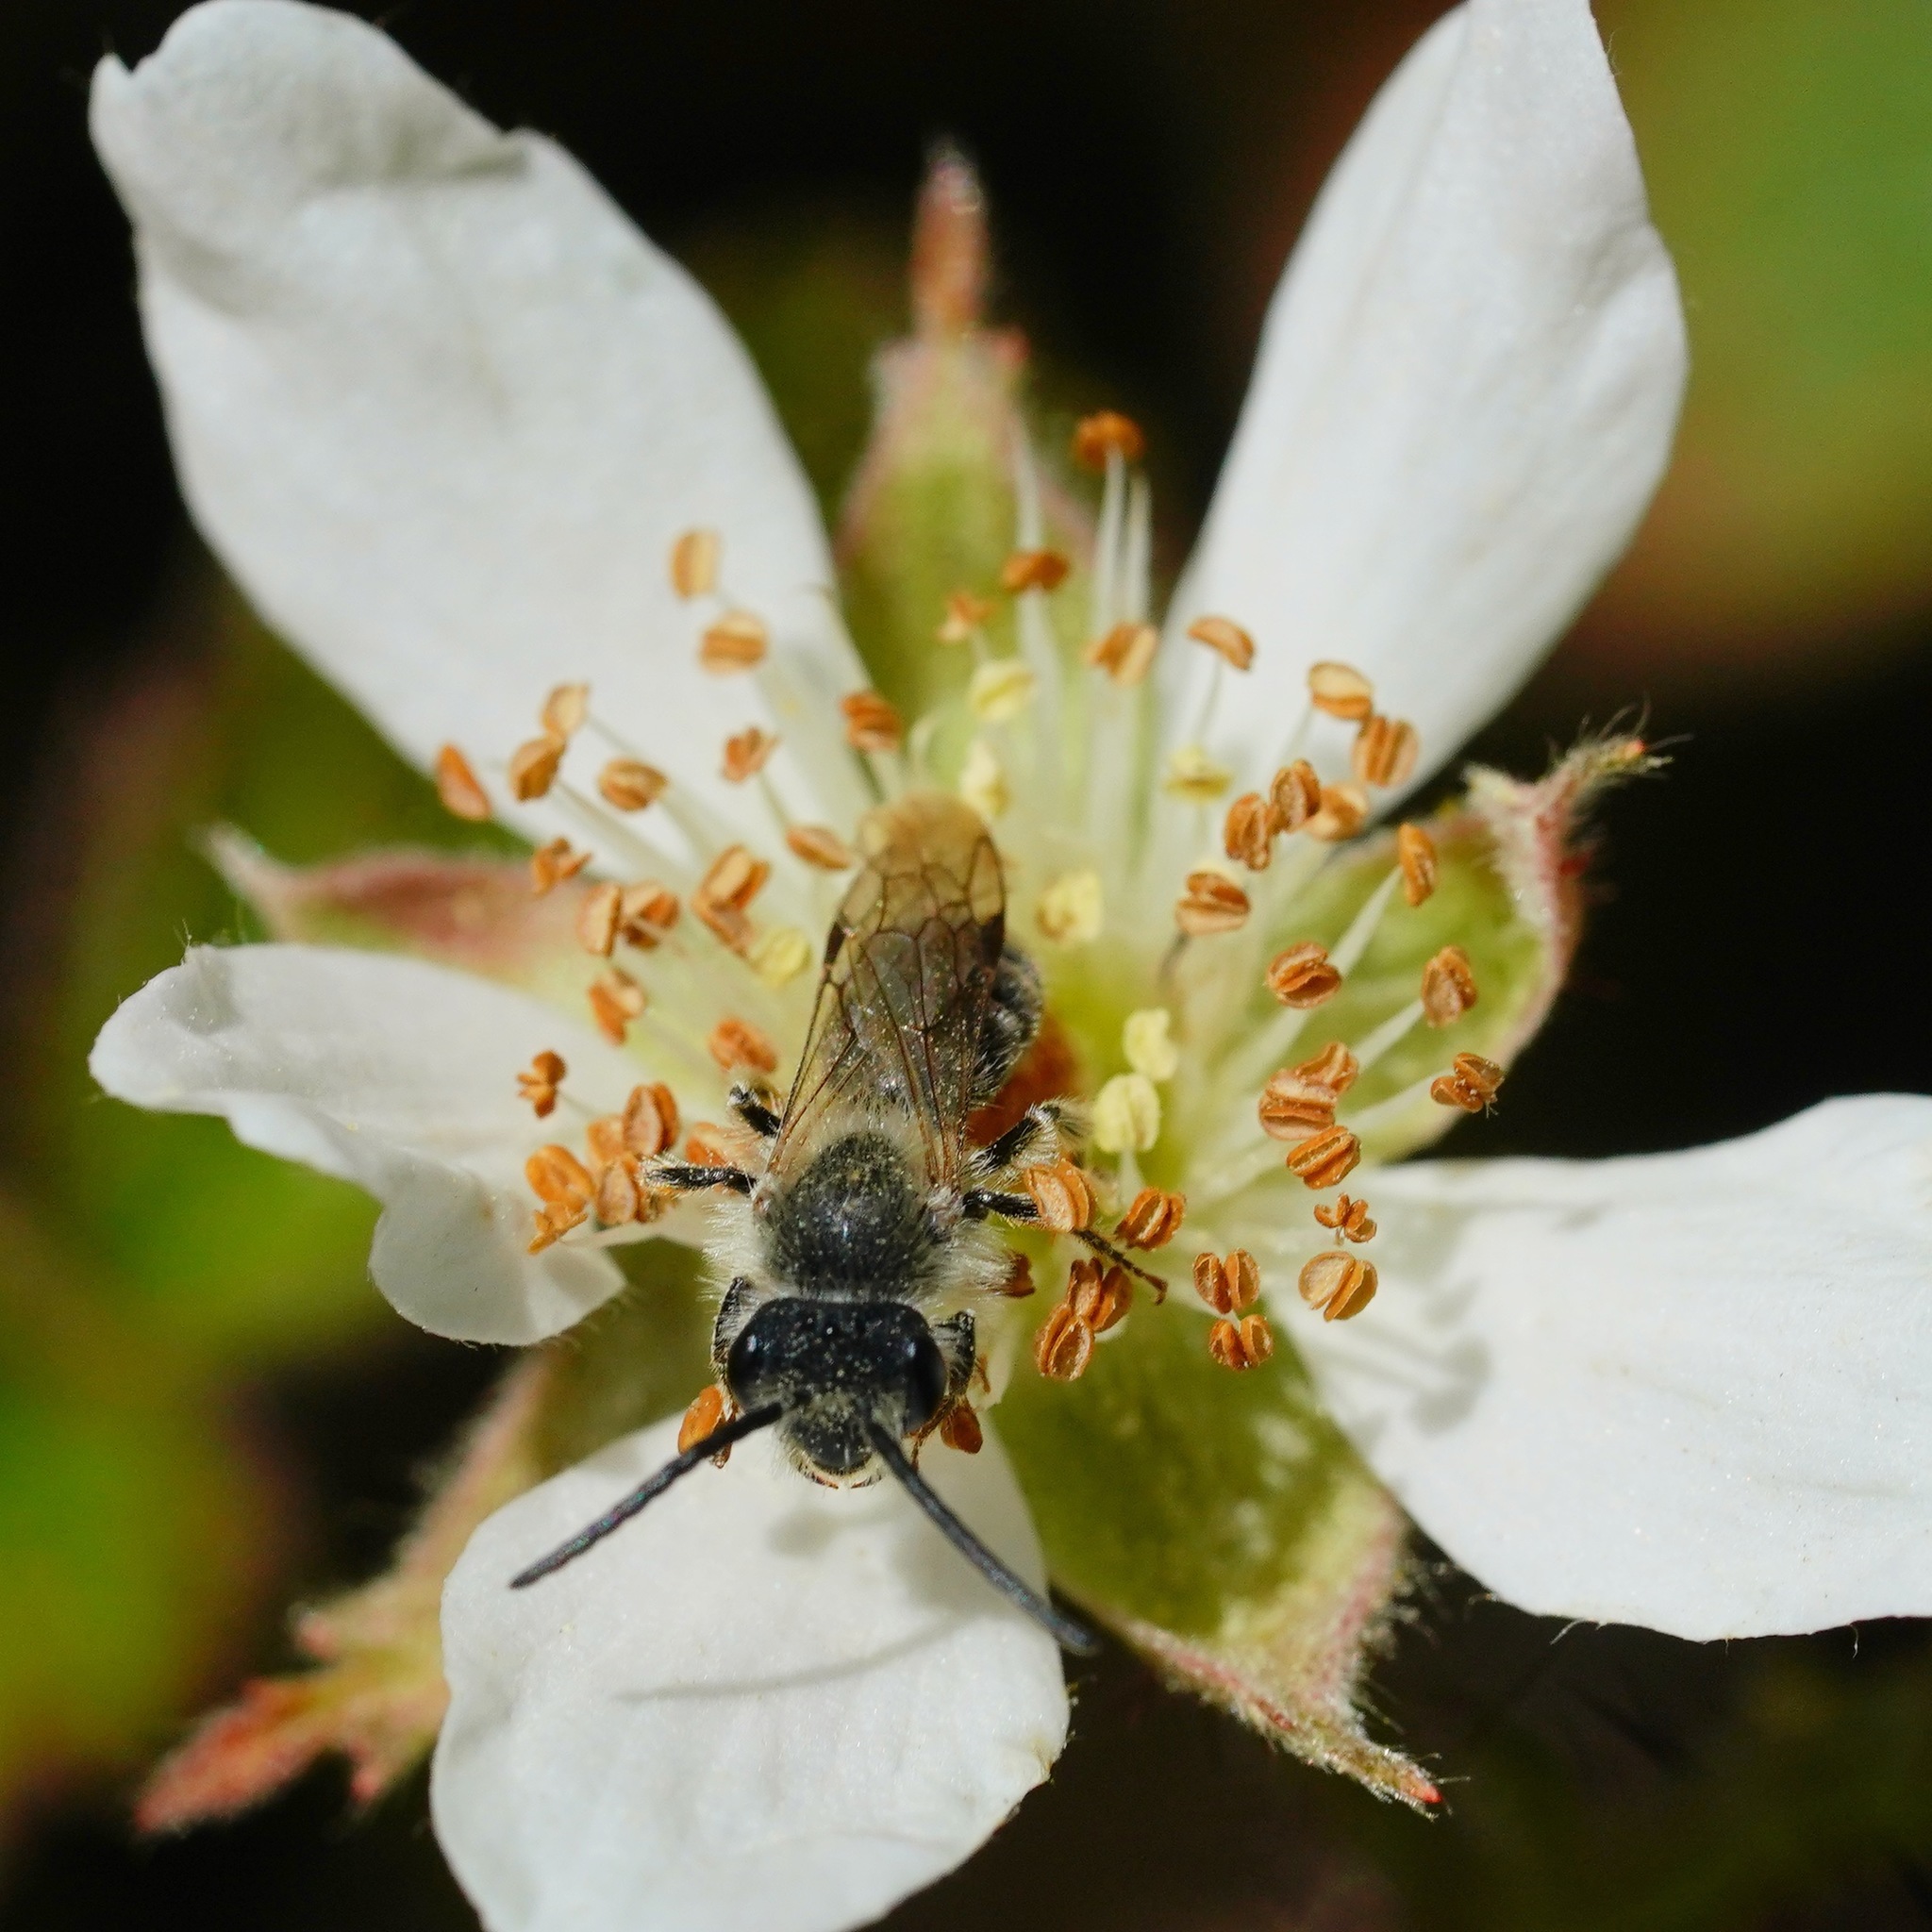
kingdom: Animalia
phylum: Arthropoda
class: Insecta
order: Hymenoptera
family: Andrenidae
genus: Andrena
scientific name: Andrena
